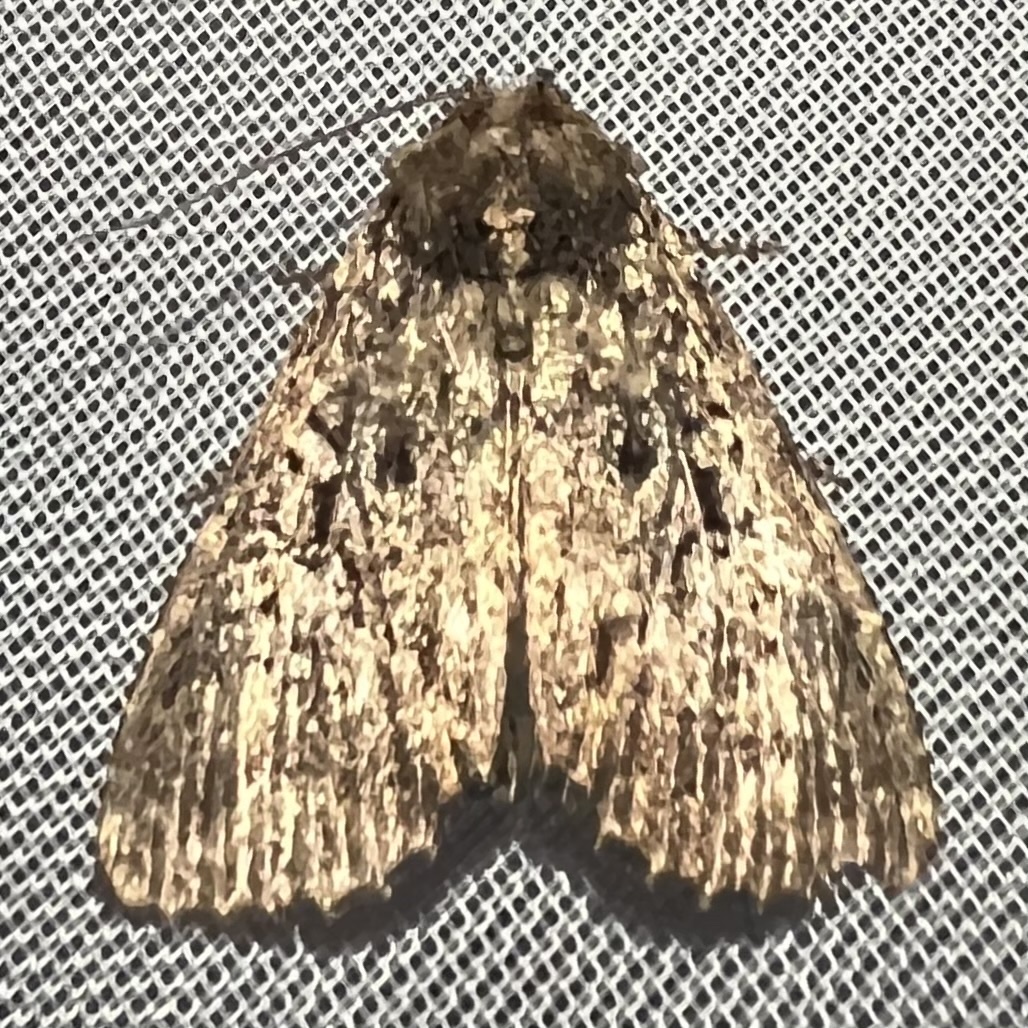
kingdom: Animalia
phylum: Arthropoda
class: Insecta
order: Lepidoptera
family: Noctuidae
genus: Condica
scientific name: Condica vecors
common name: Dusky groundling
